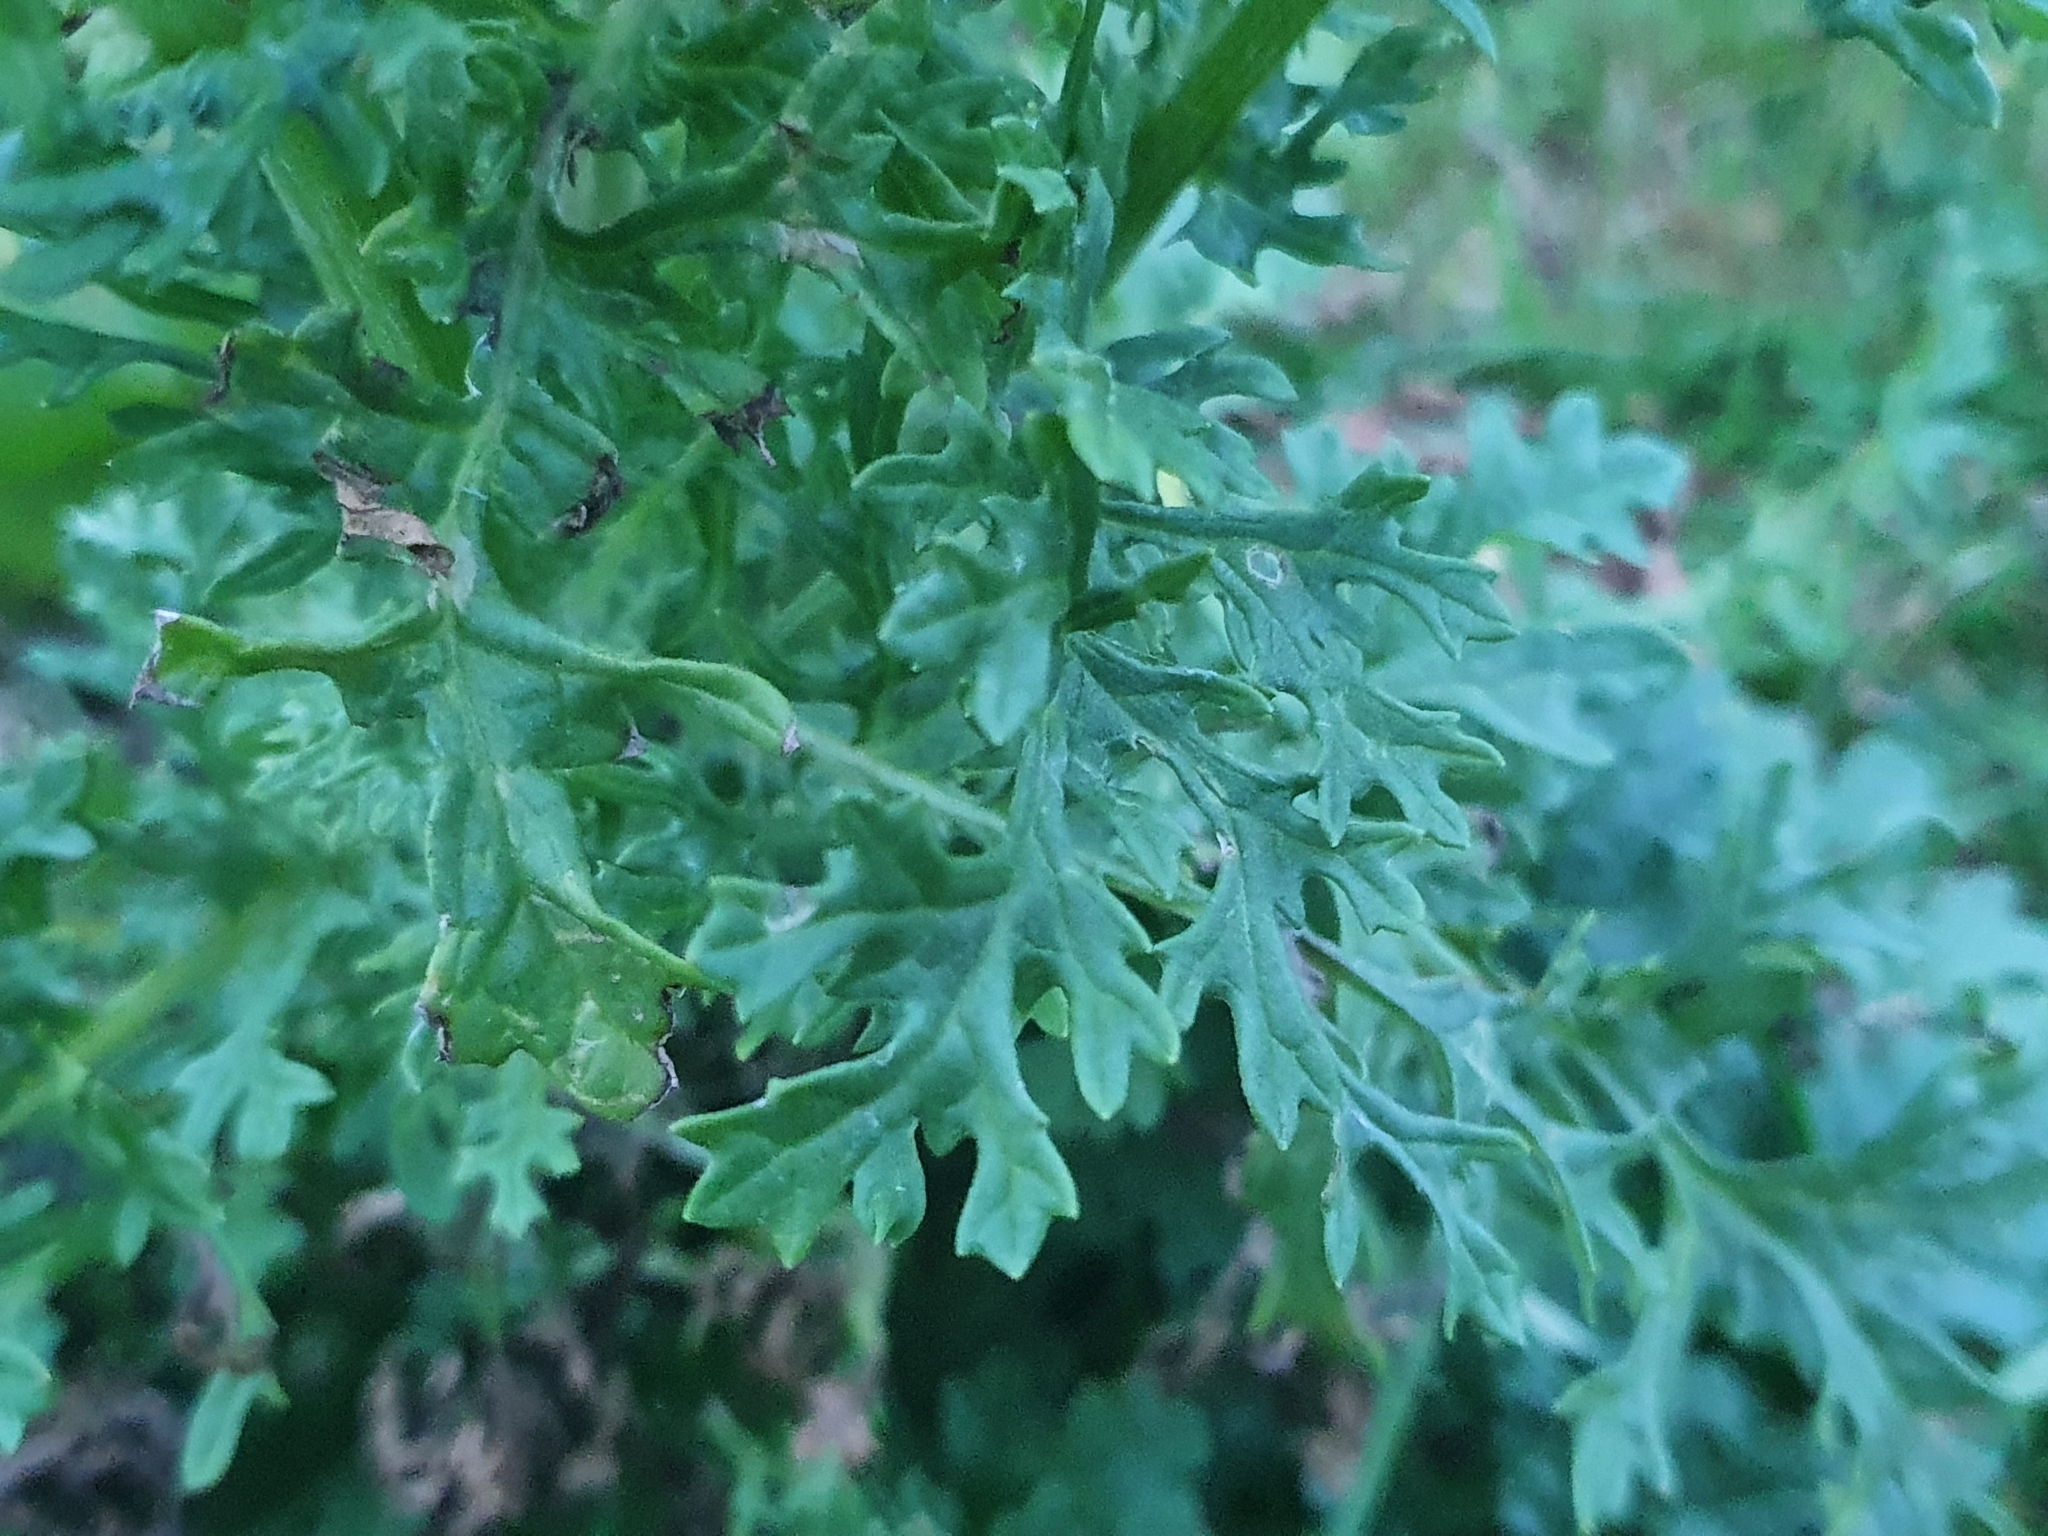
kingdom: Plantae
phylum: Tracheophyta
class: Magnoliopsida
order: Asterales
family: Asteraceae
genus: Jacobaea
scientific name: Jacobaea vulgaris
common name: Stinking willie
